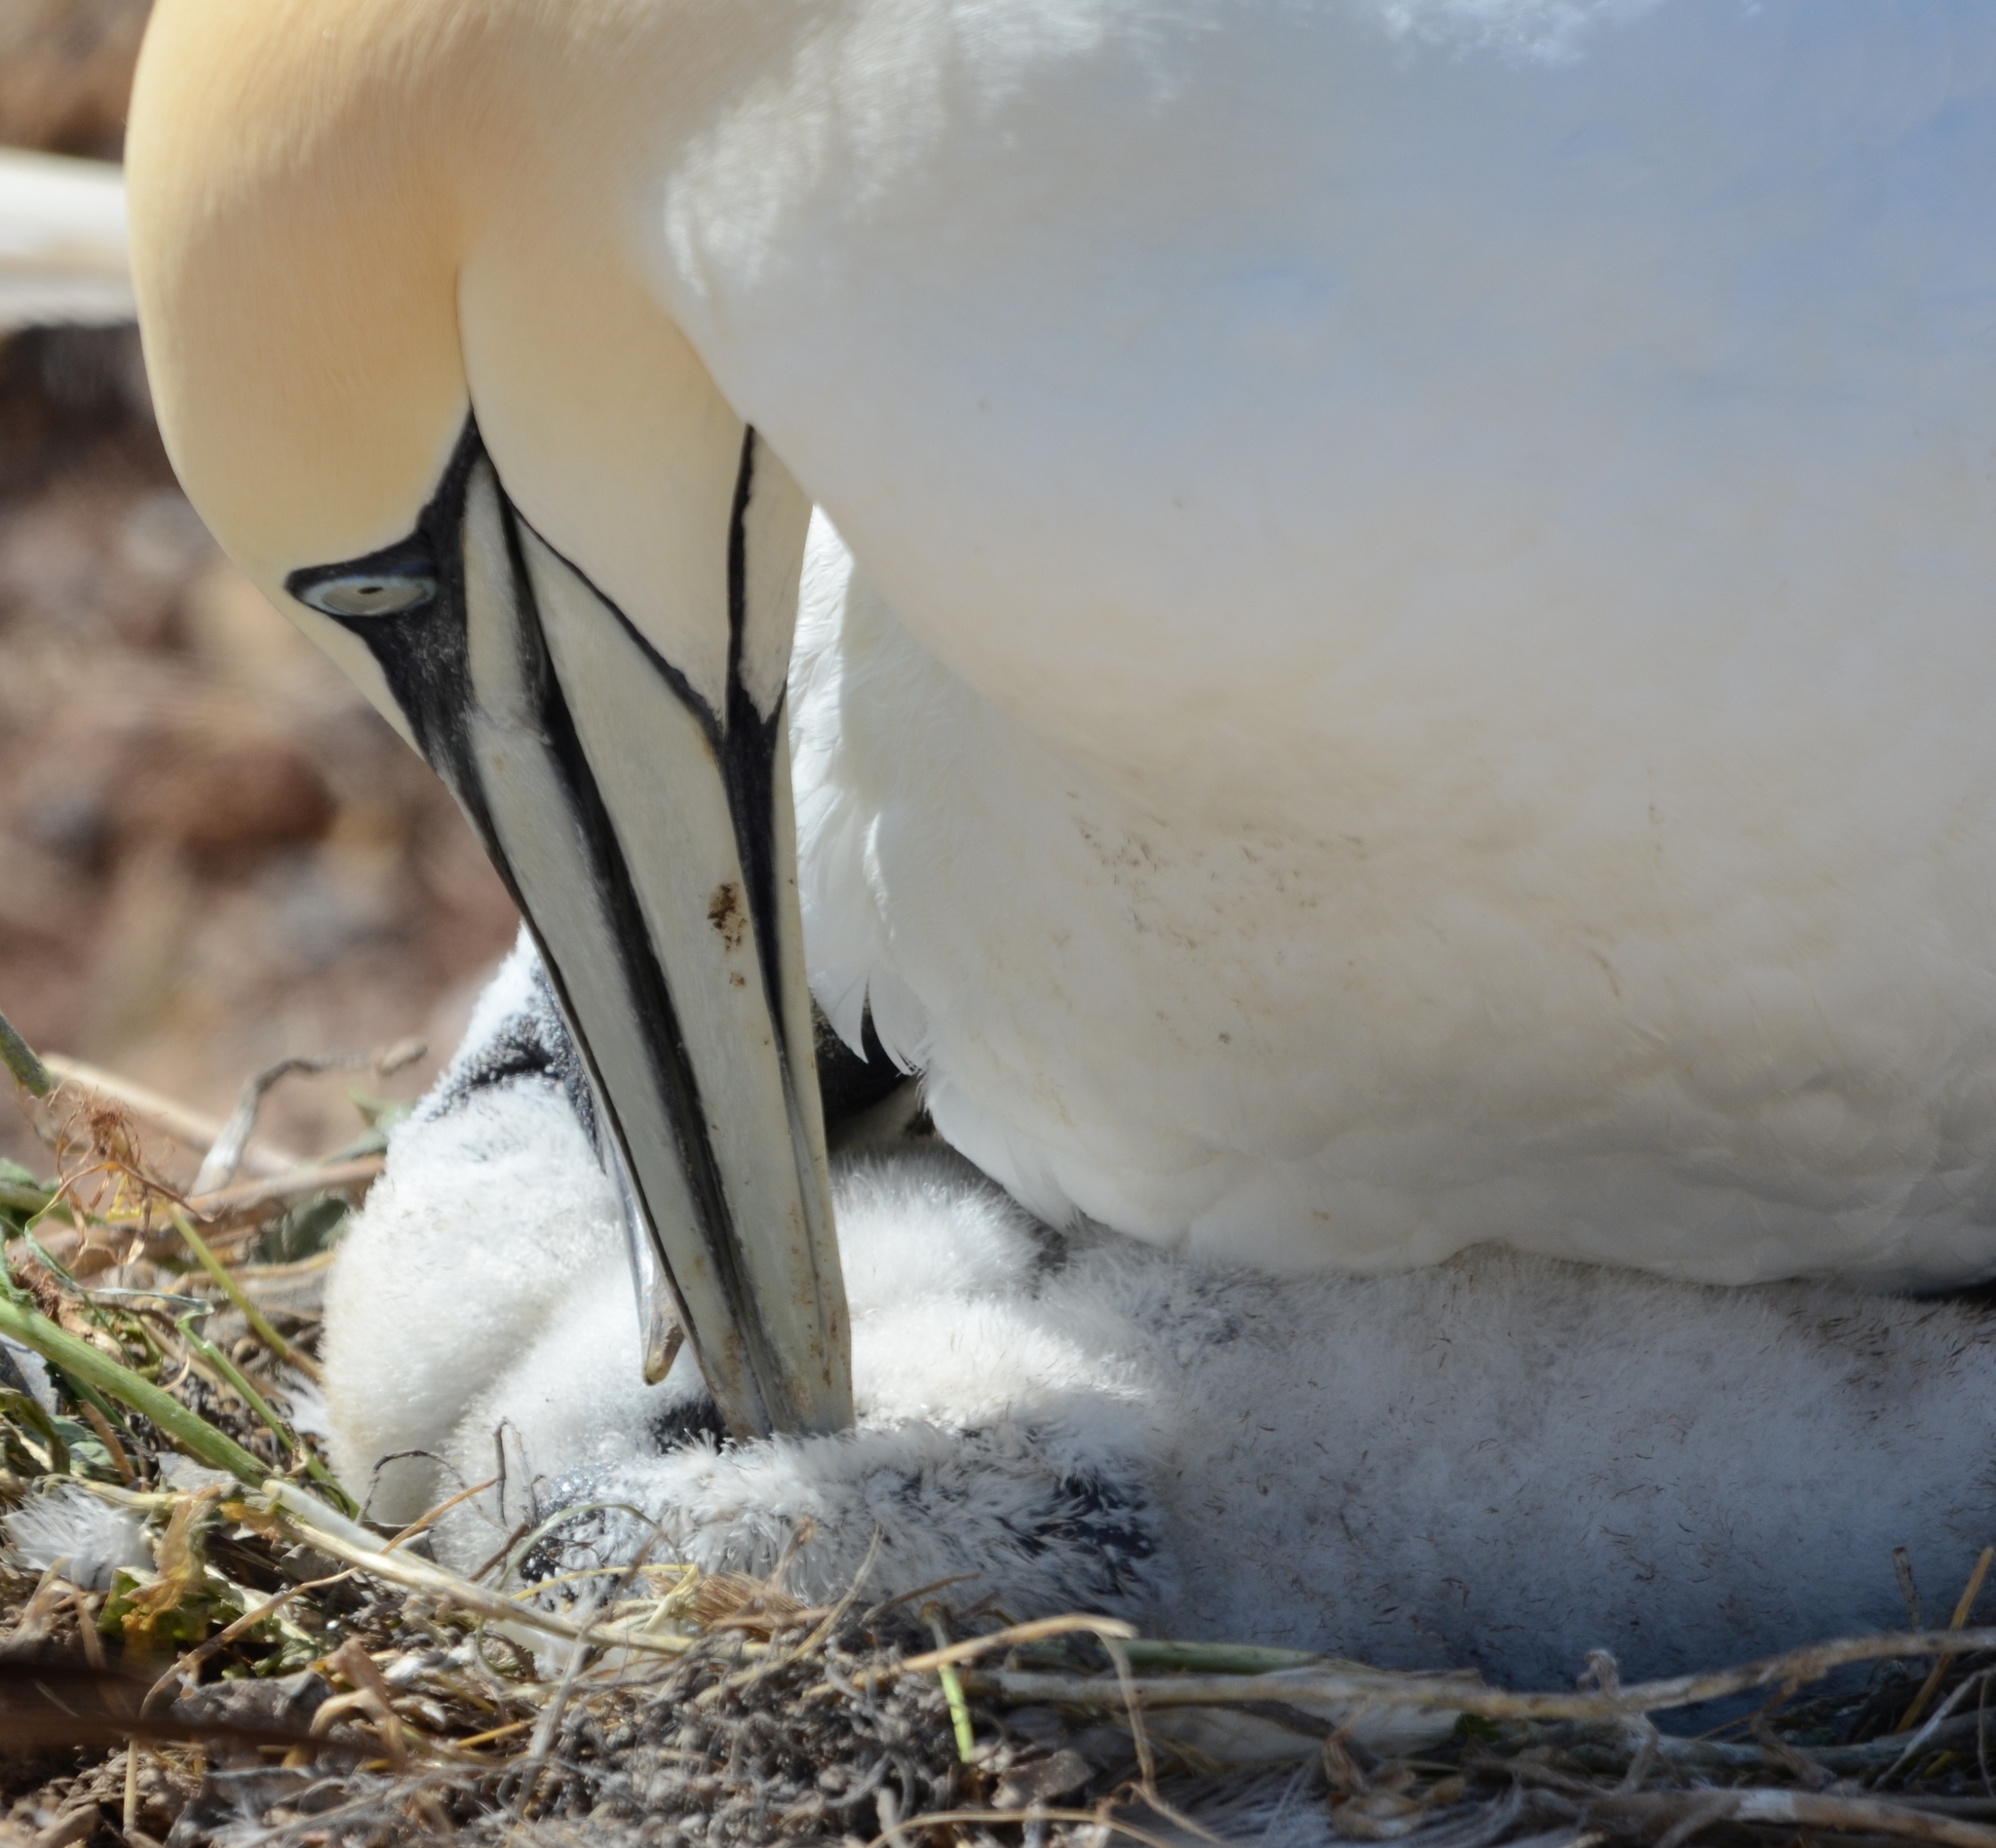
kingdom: Animalia
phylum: Chordata
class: Aves
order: Suliformes
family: Sulidae
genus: Morus
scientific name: Morus bassanus
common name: Northern gannet
